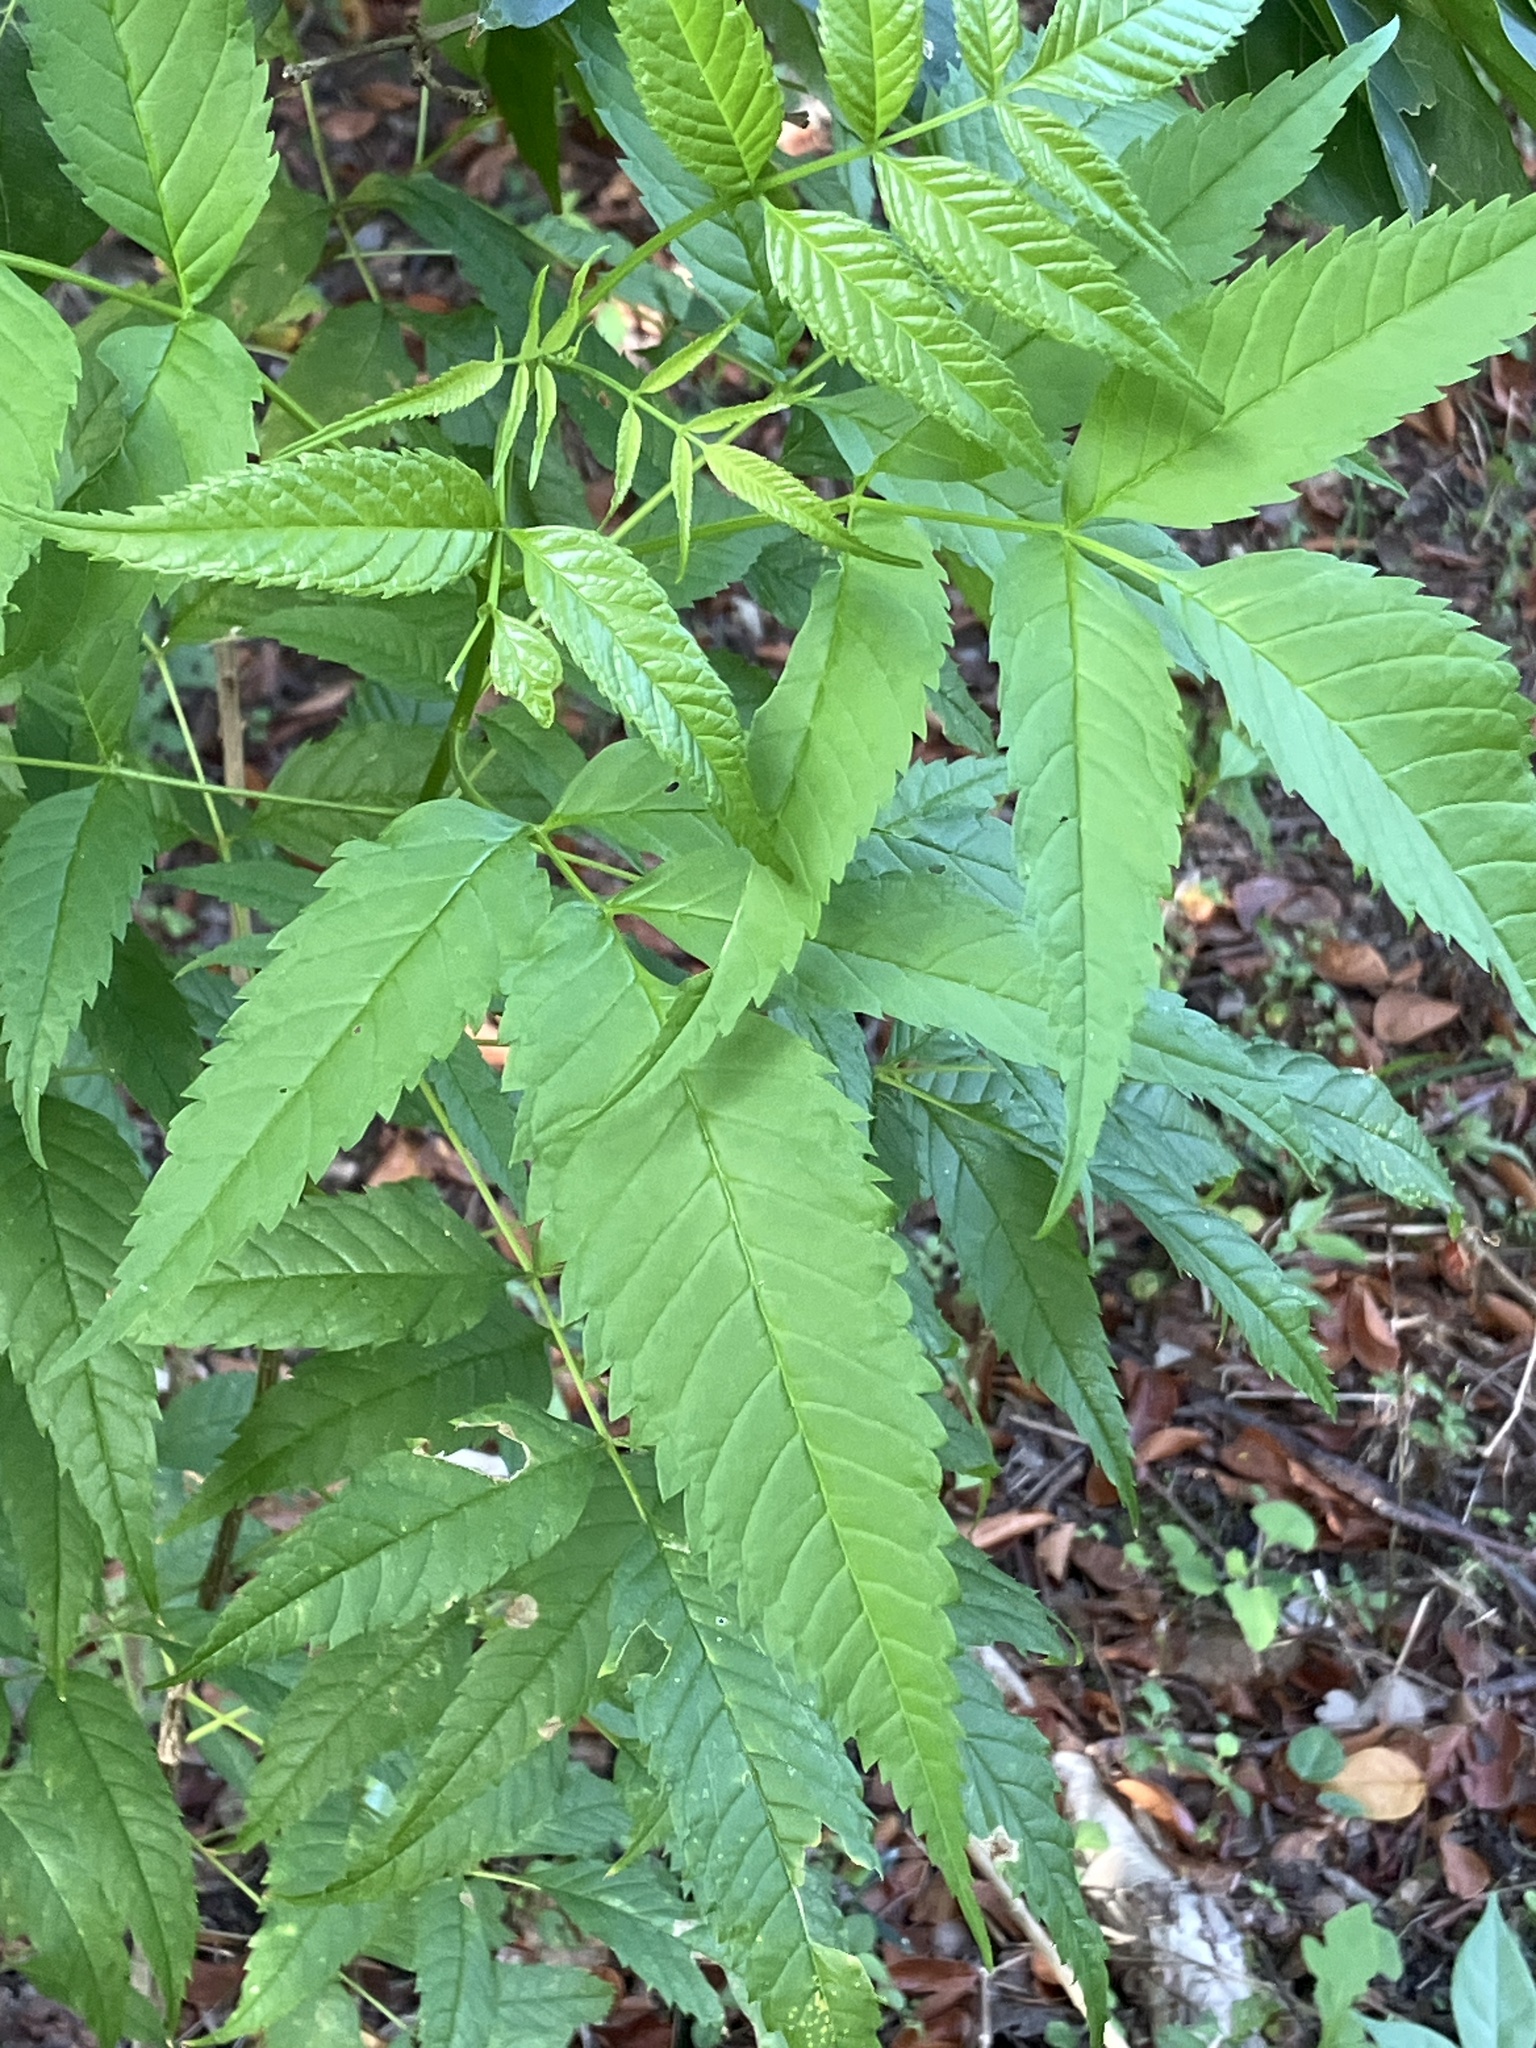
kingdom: Plantae
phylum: Tracheophyta
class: Magnoliopsida
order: Lamiales
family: Bignoniaceae
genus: Tecoma
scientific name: Tecoma stans
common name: Yellow trumpetbush
